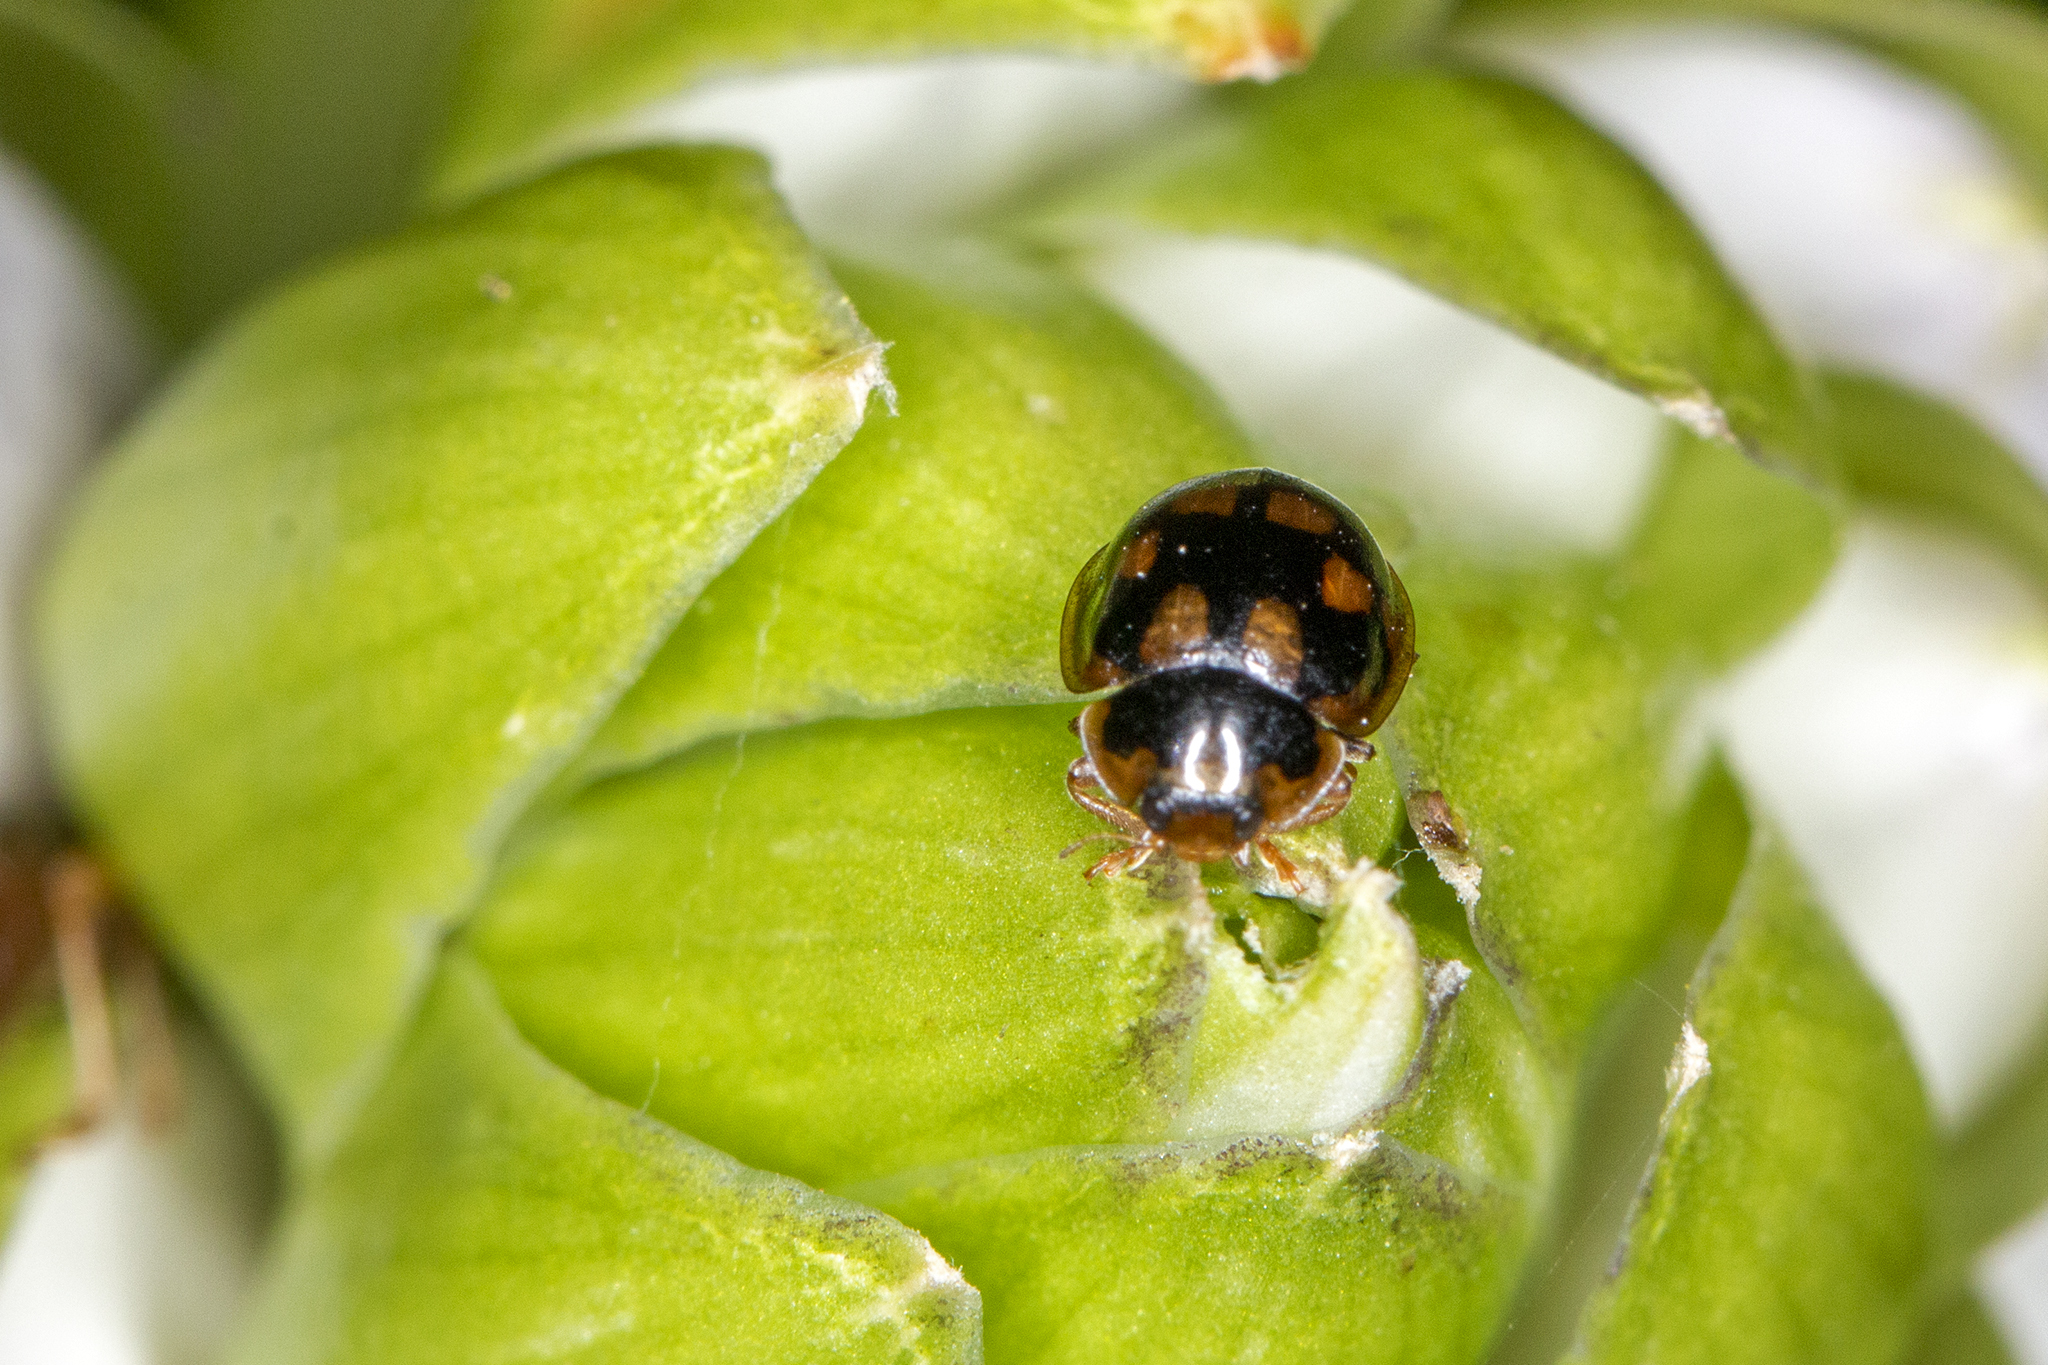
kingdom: Animalia
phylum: Arthropoda
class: Insecta
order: Coleoptera
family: Coccinellidae
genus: Propylaea
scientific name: Propylaea quatuordecimpunctata
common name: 14-spotted ladybird beetle
